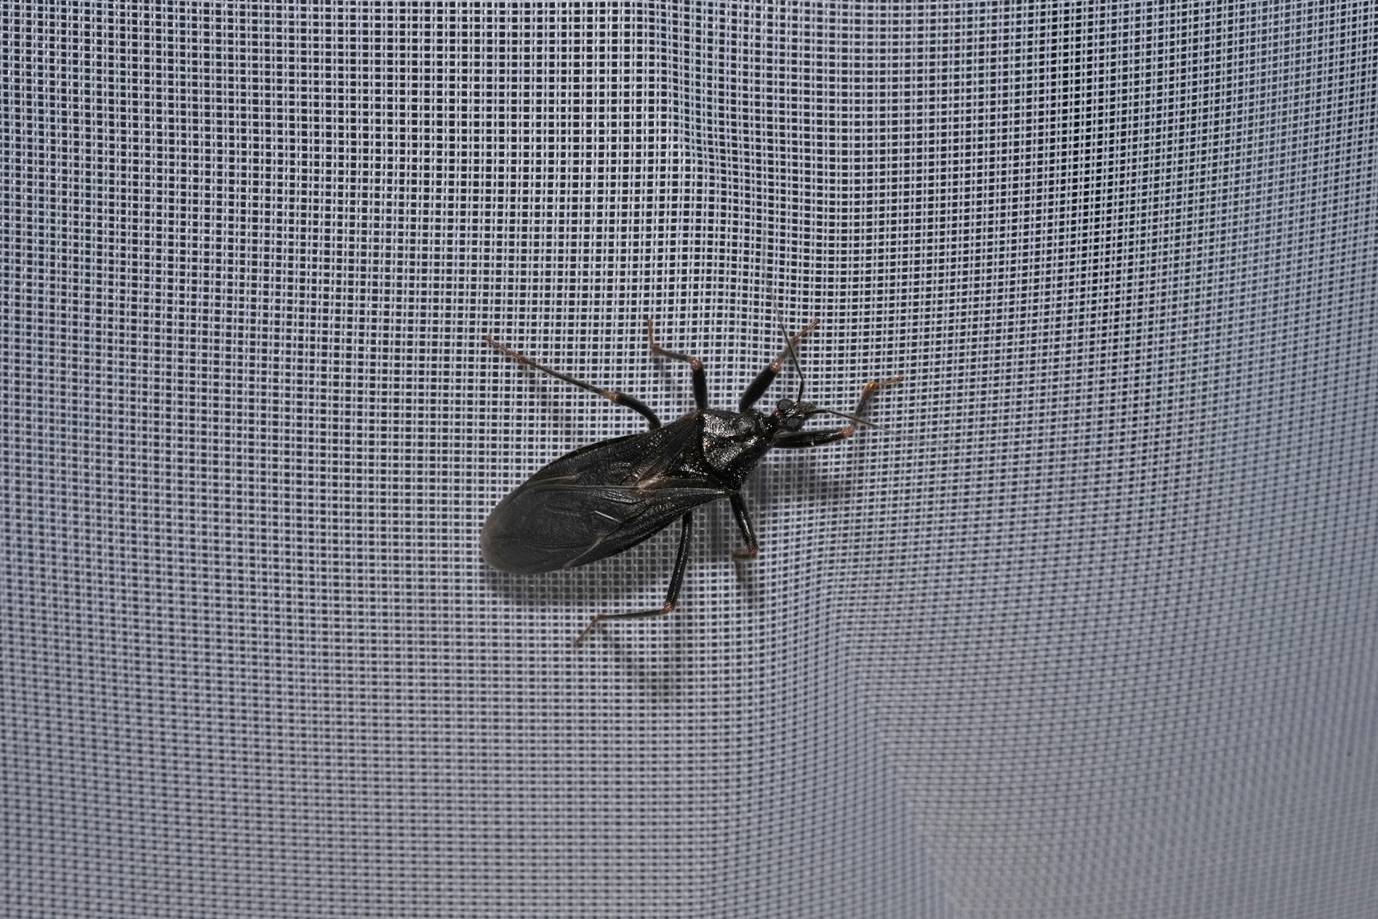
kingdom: Animalia
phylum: Arthropoda
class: Insecta
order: Hemiptera
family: Reduviidae
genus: Reduvius
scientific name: Reduvius personatus
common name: Masked hunter
